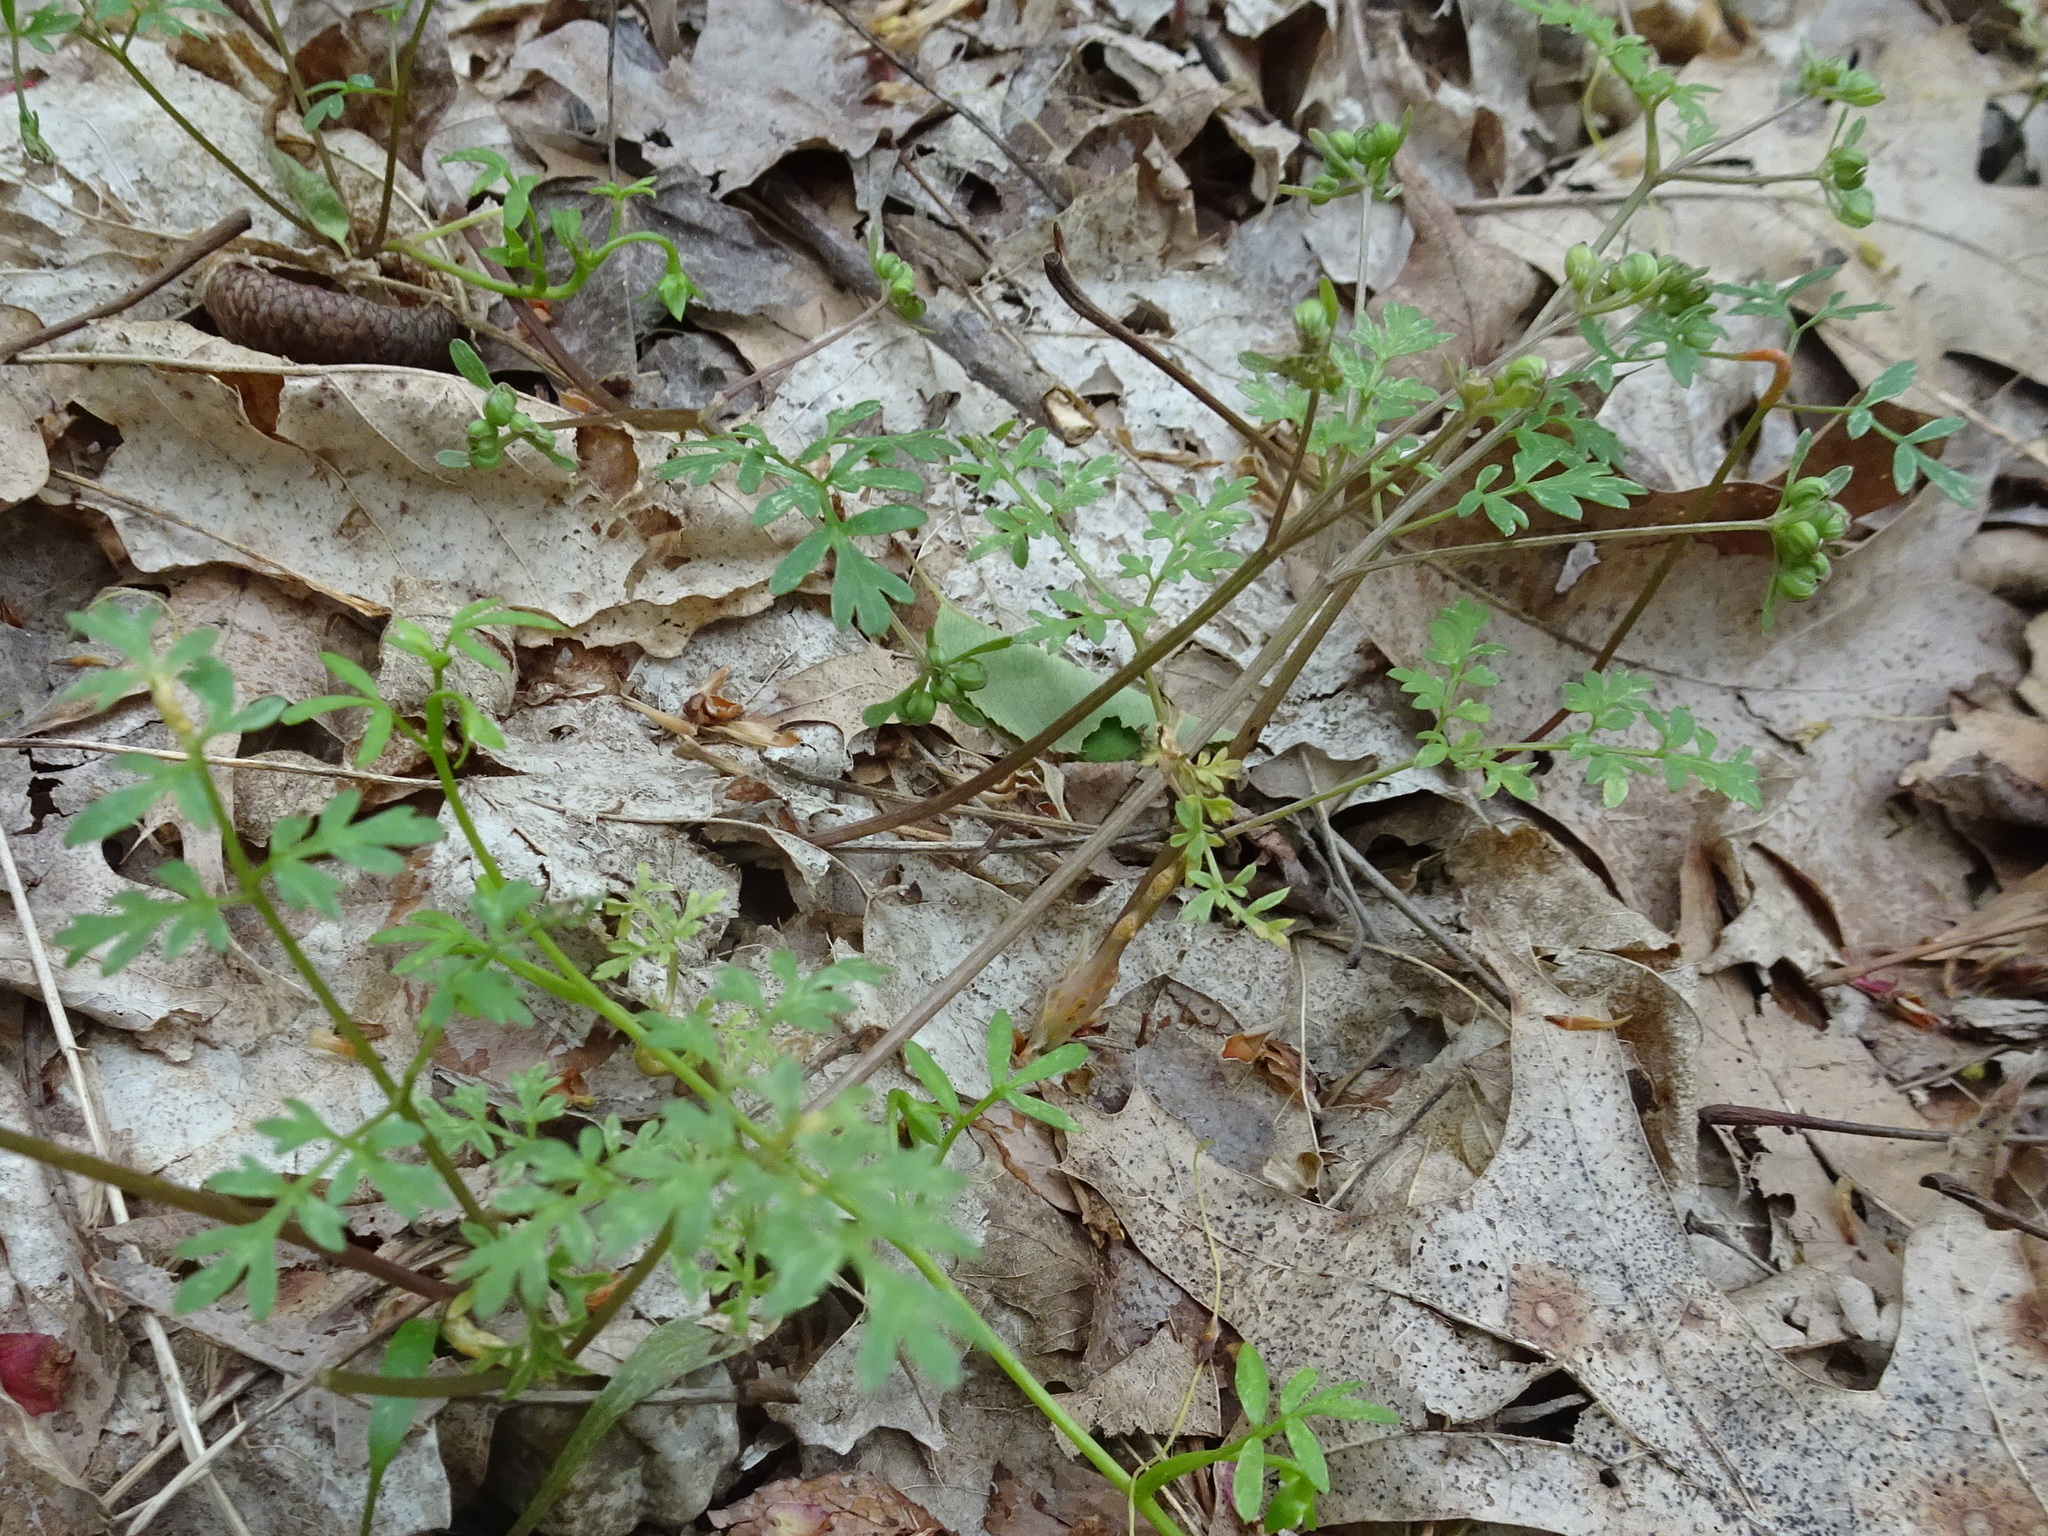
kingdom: Plantae
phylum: Tracheophyta
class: Magnoliopsida
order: Apiales
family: Apiaceae
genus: Erigenia
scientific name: Erigenia bulbosa
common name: Pepper-and-salt
